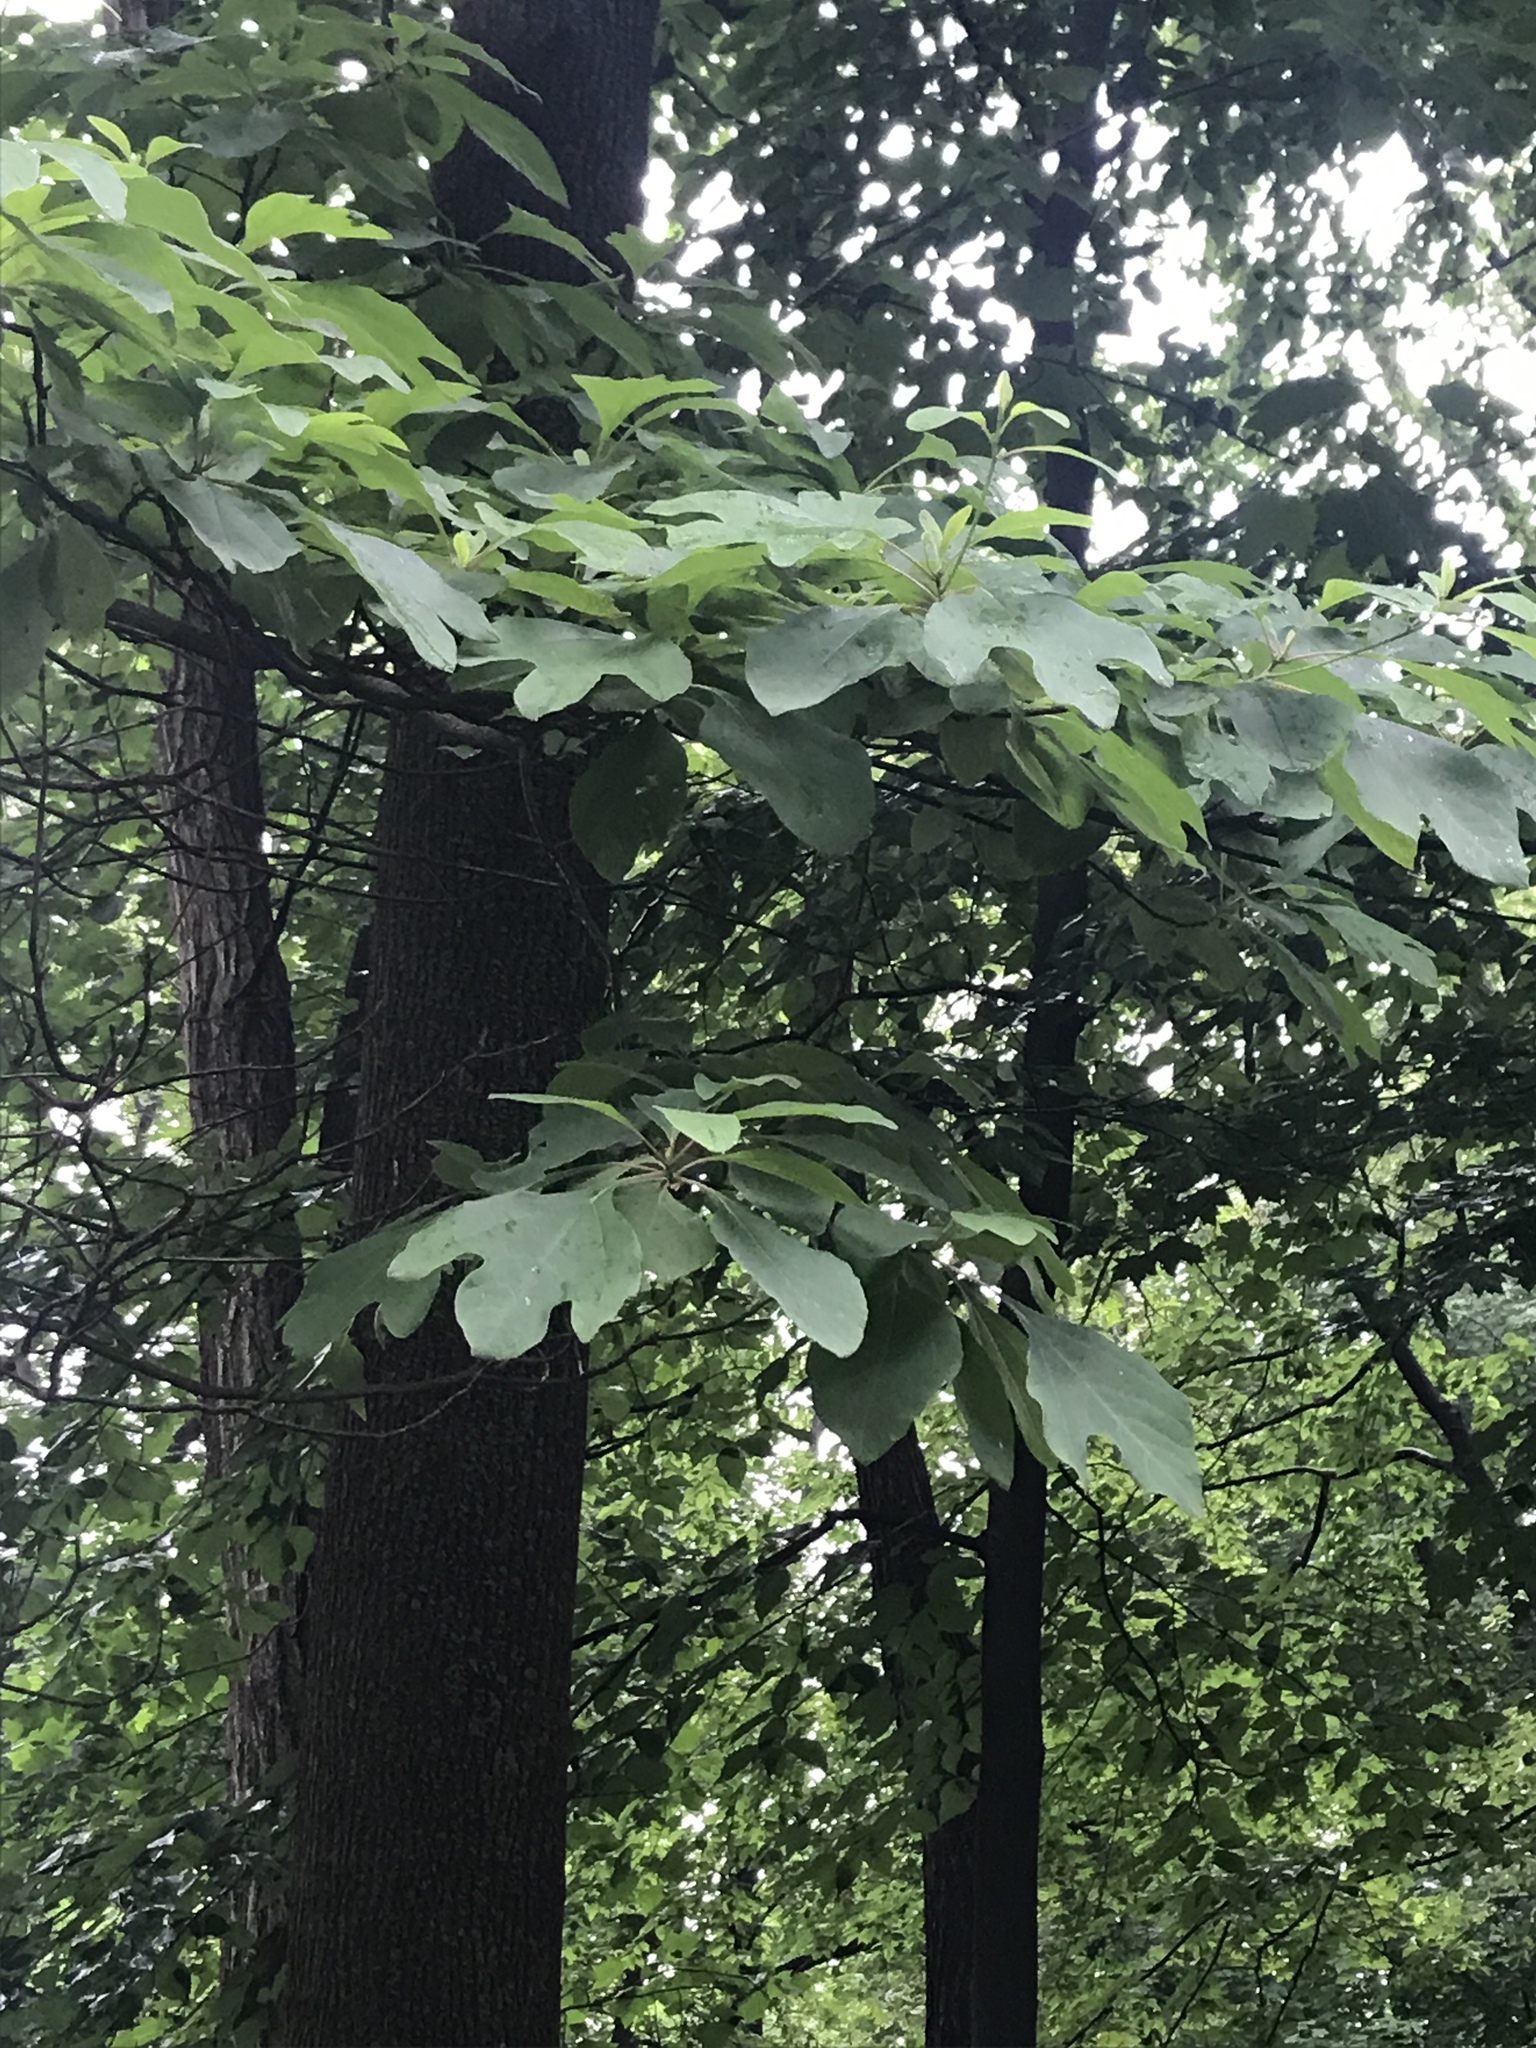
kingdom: Plantae
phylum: Tracheophyta
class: Magnoliopsida
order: Laurales
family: Lauraceae
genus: Sassafras
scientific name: Sassafras albidum
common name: Sassafras
